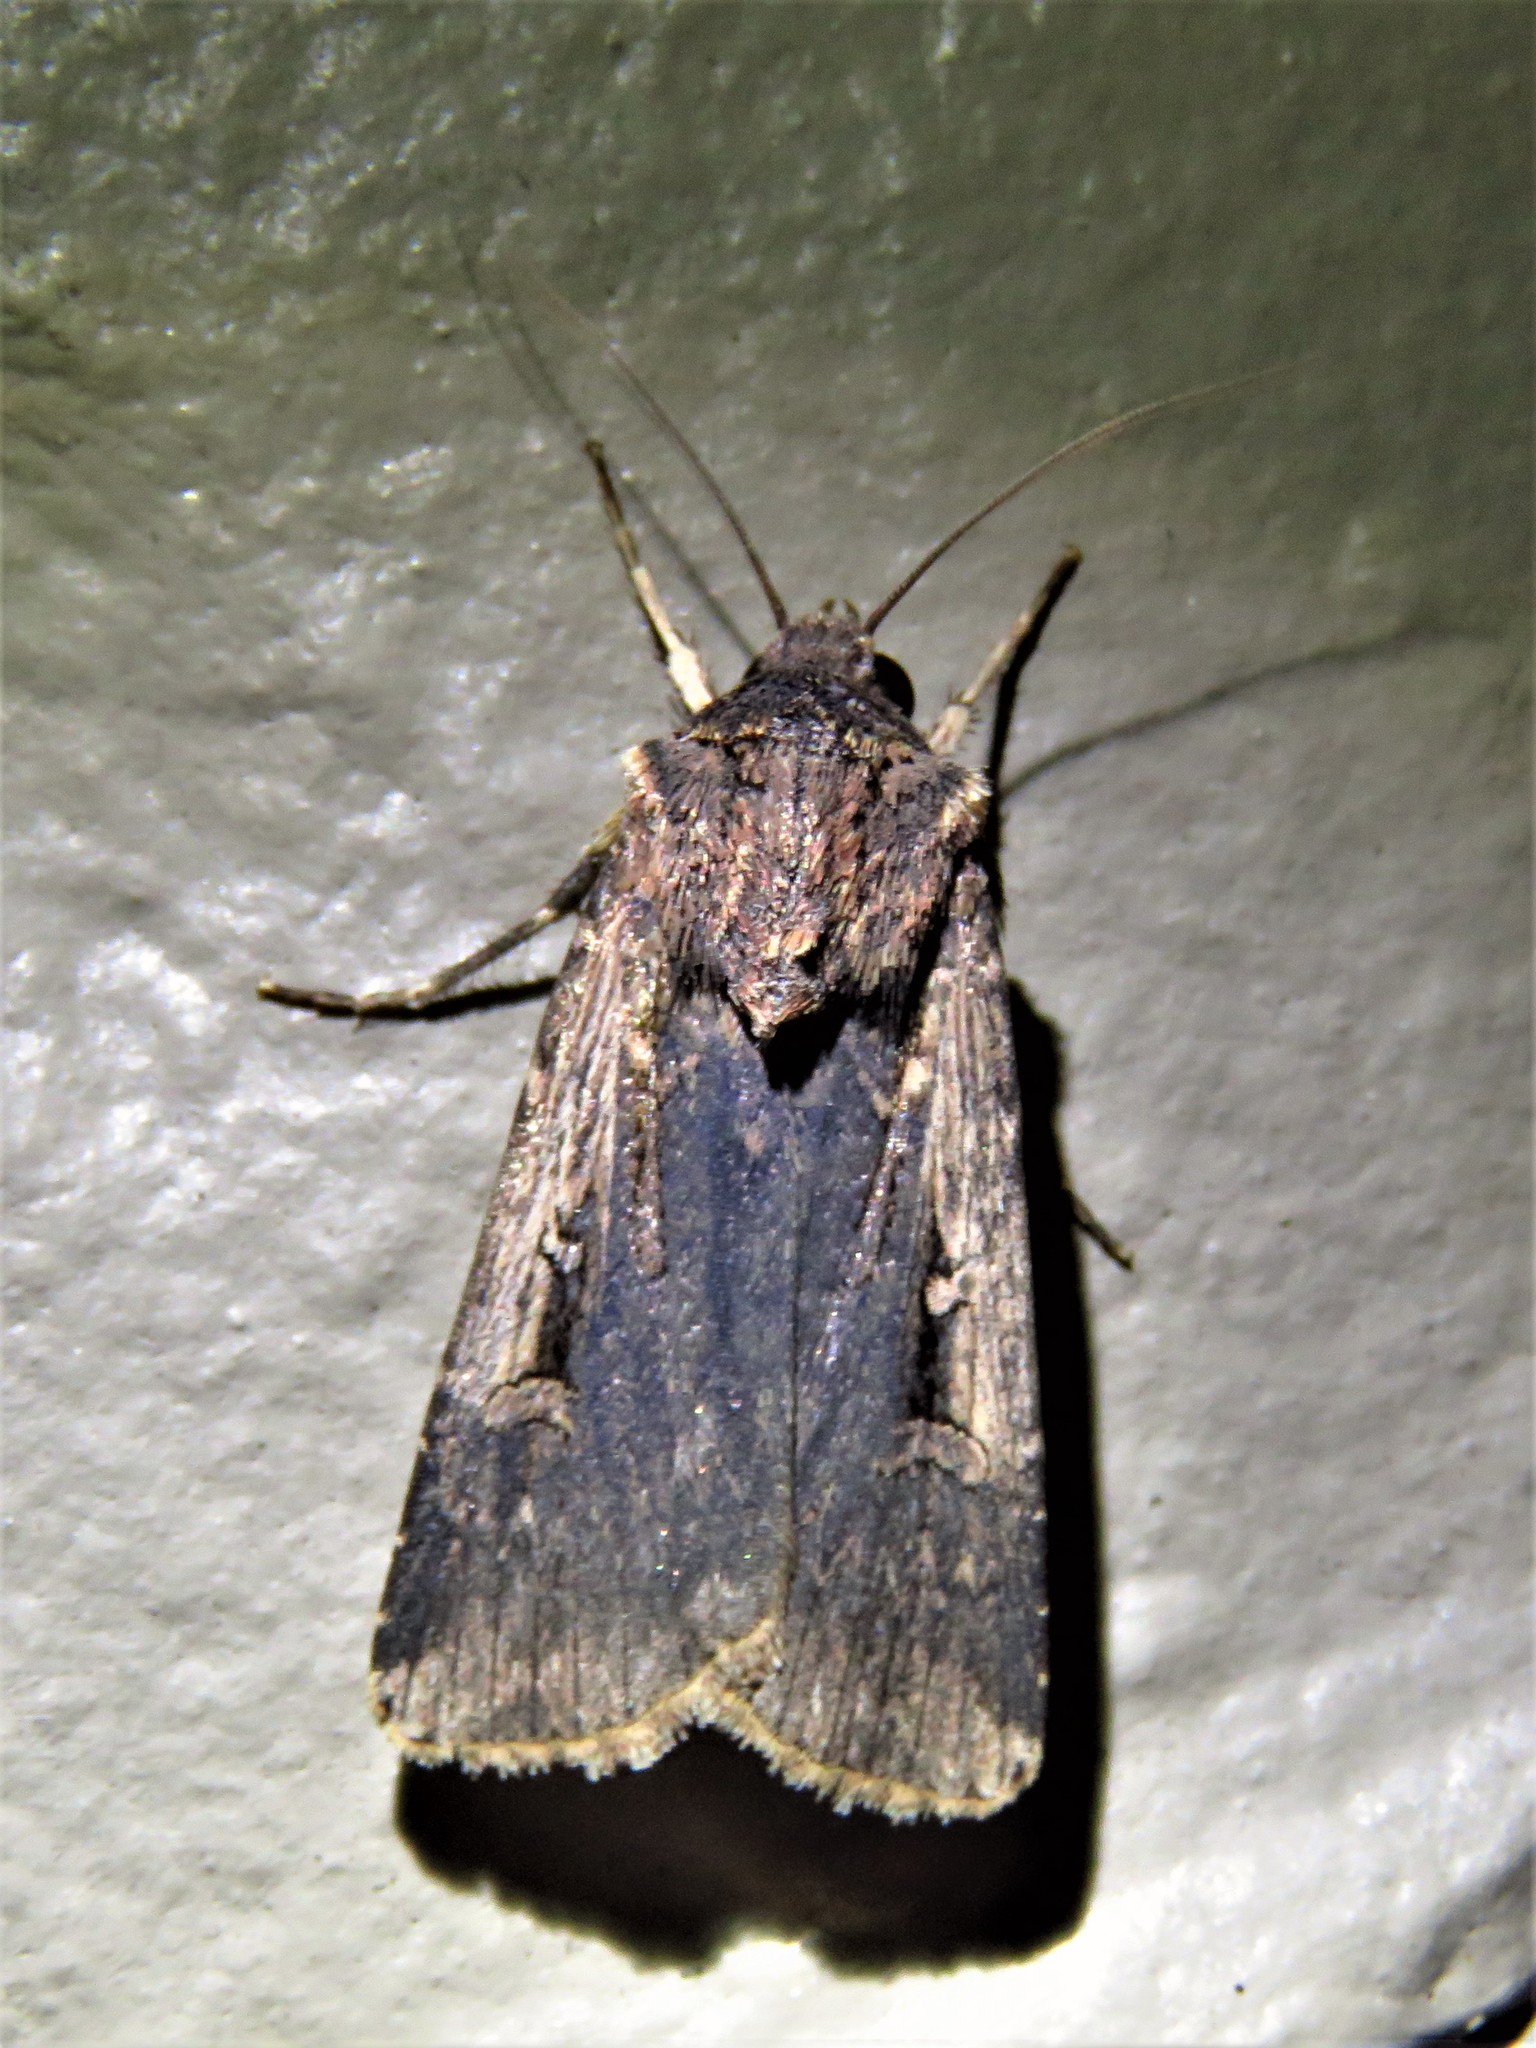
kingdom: Animalia
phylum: Arthropoda
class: Insecta
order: Lepidoptera
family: Noctuidae
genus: Feltia
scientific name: Feltia subterranea
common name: Granulate cutworm
